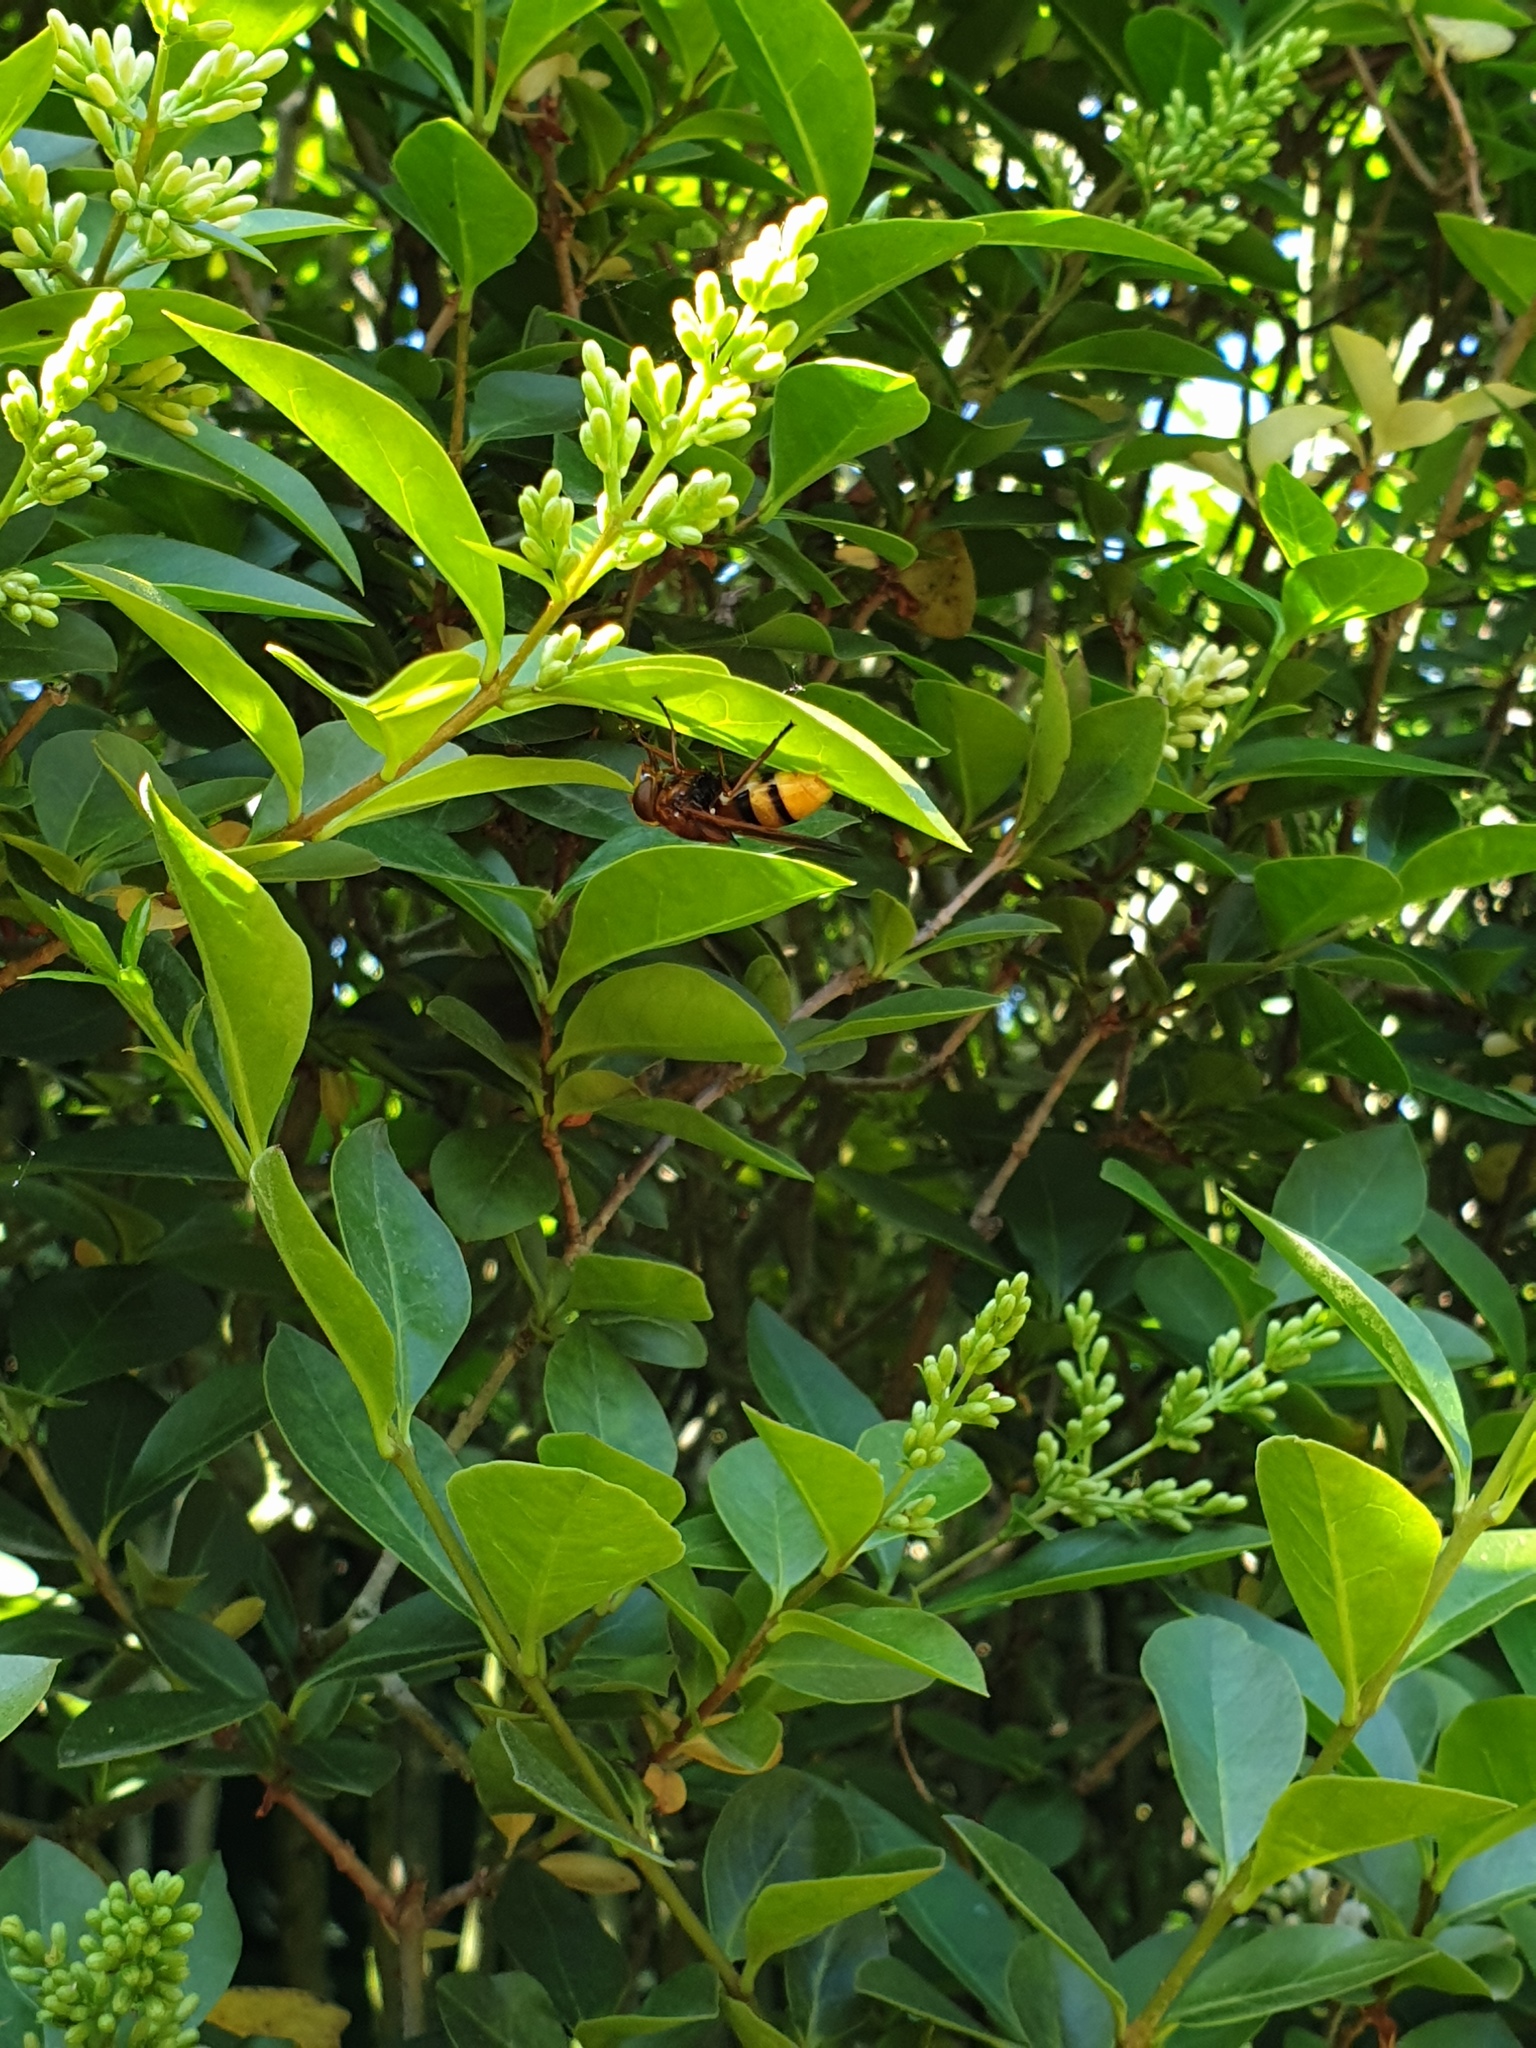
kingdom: Animalia
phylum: Arthropoda
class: Insecta
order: Diptera
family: Syrphidae
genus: Volucella
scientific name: Volucella zonaria
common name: Hornet hoverfly
